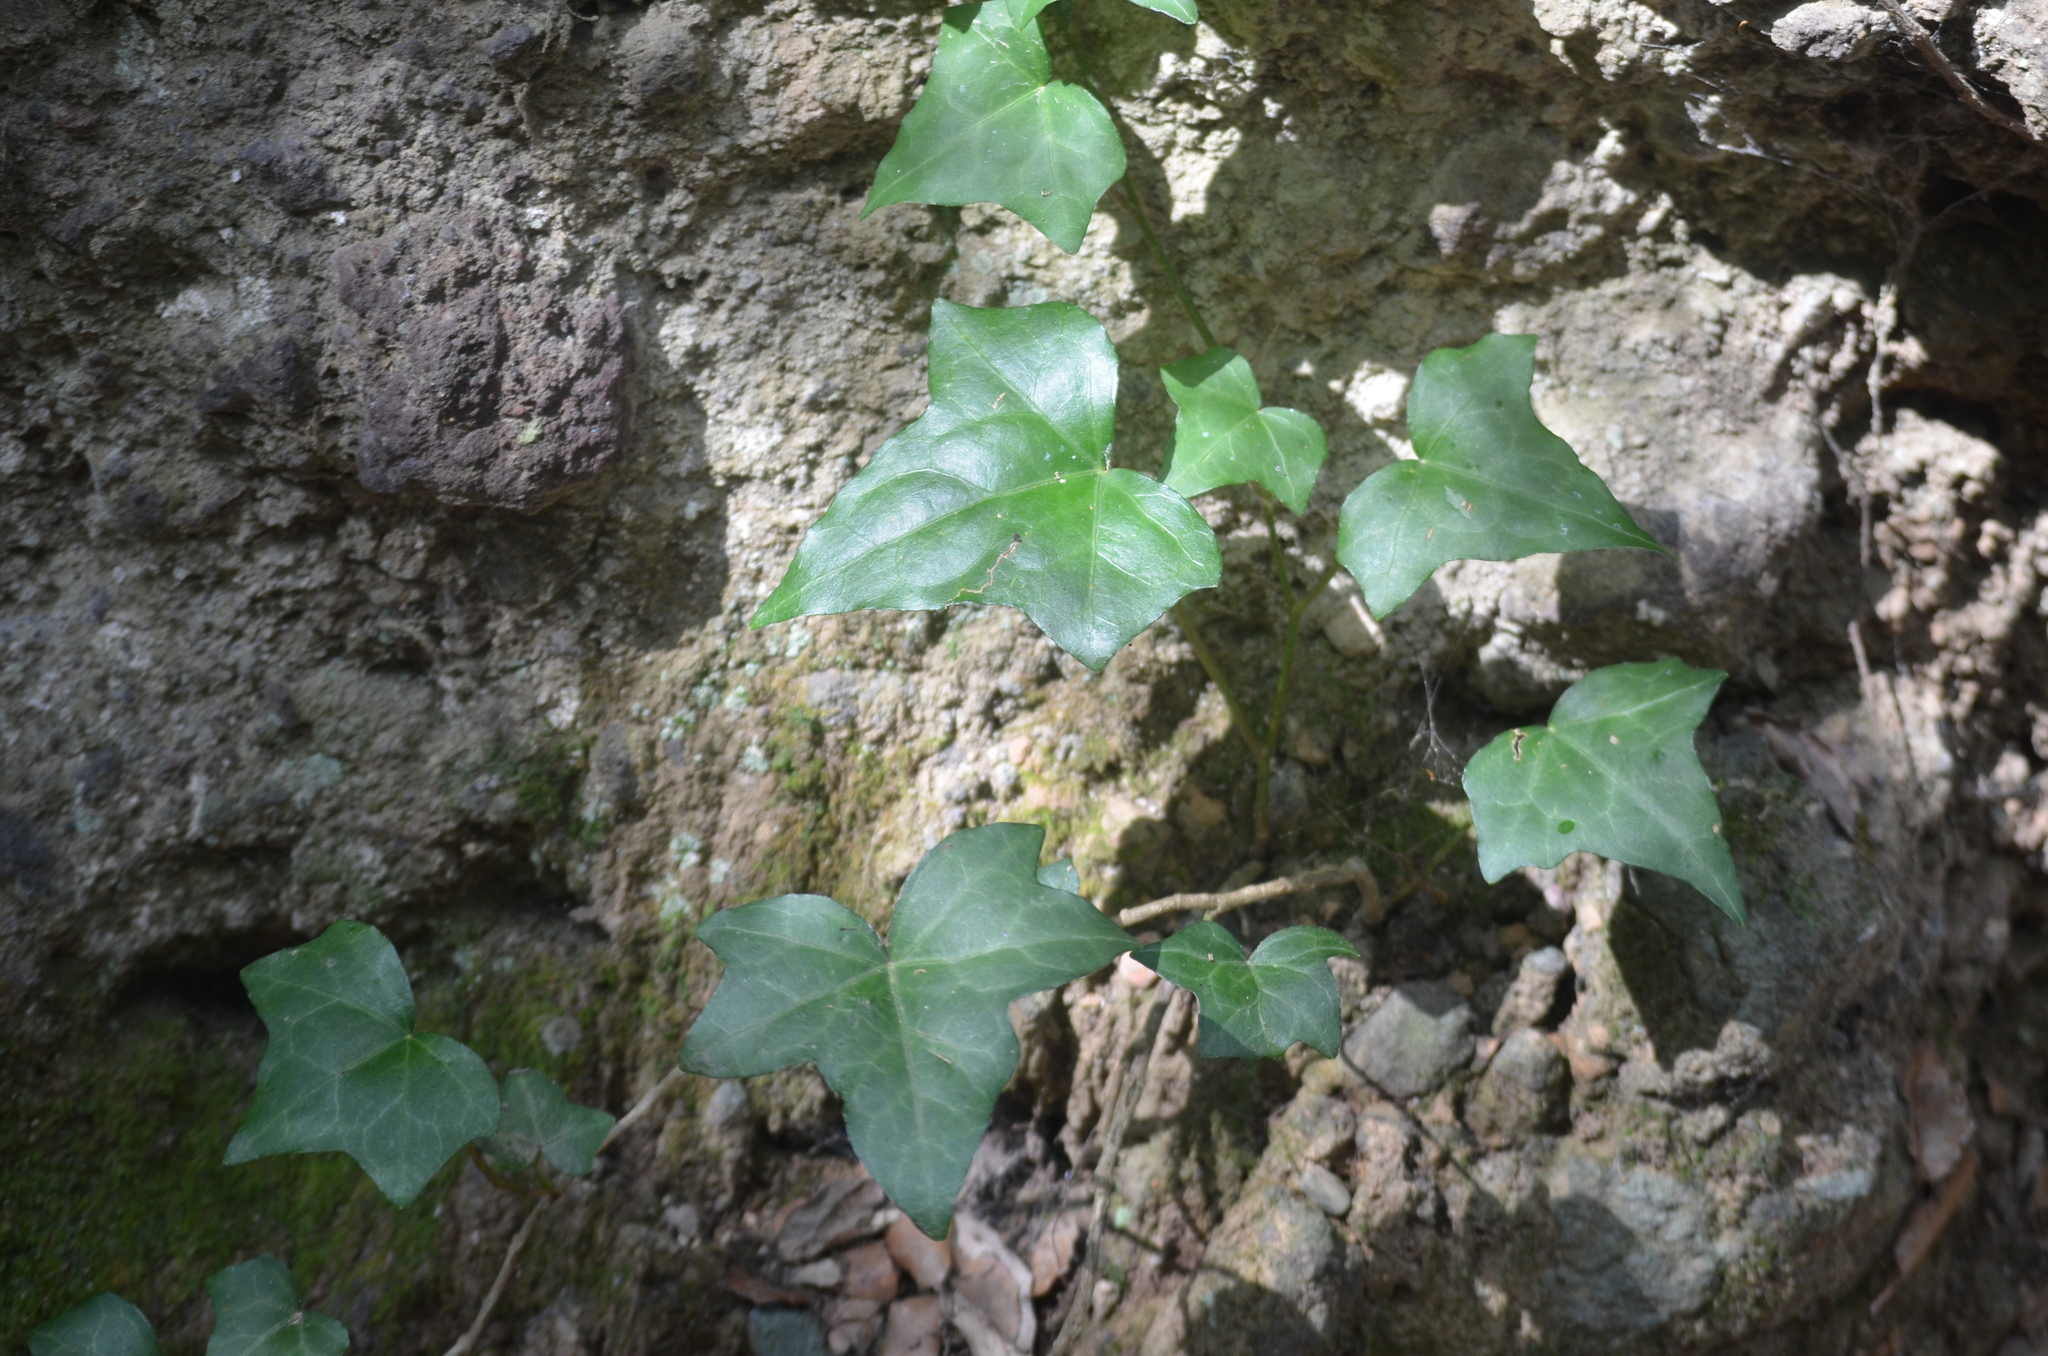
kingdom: Plantae
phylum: Tracheophyta
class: Magnoliopsida
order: Apiales
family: Araliaceae
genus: Hedera
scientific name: Hedera helix
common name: Ivy
